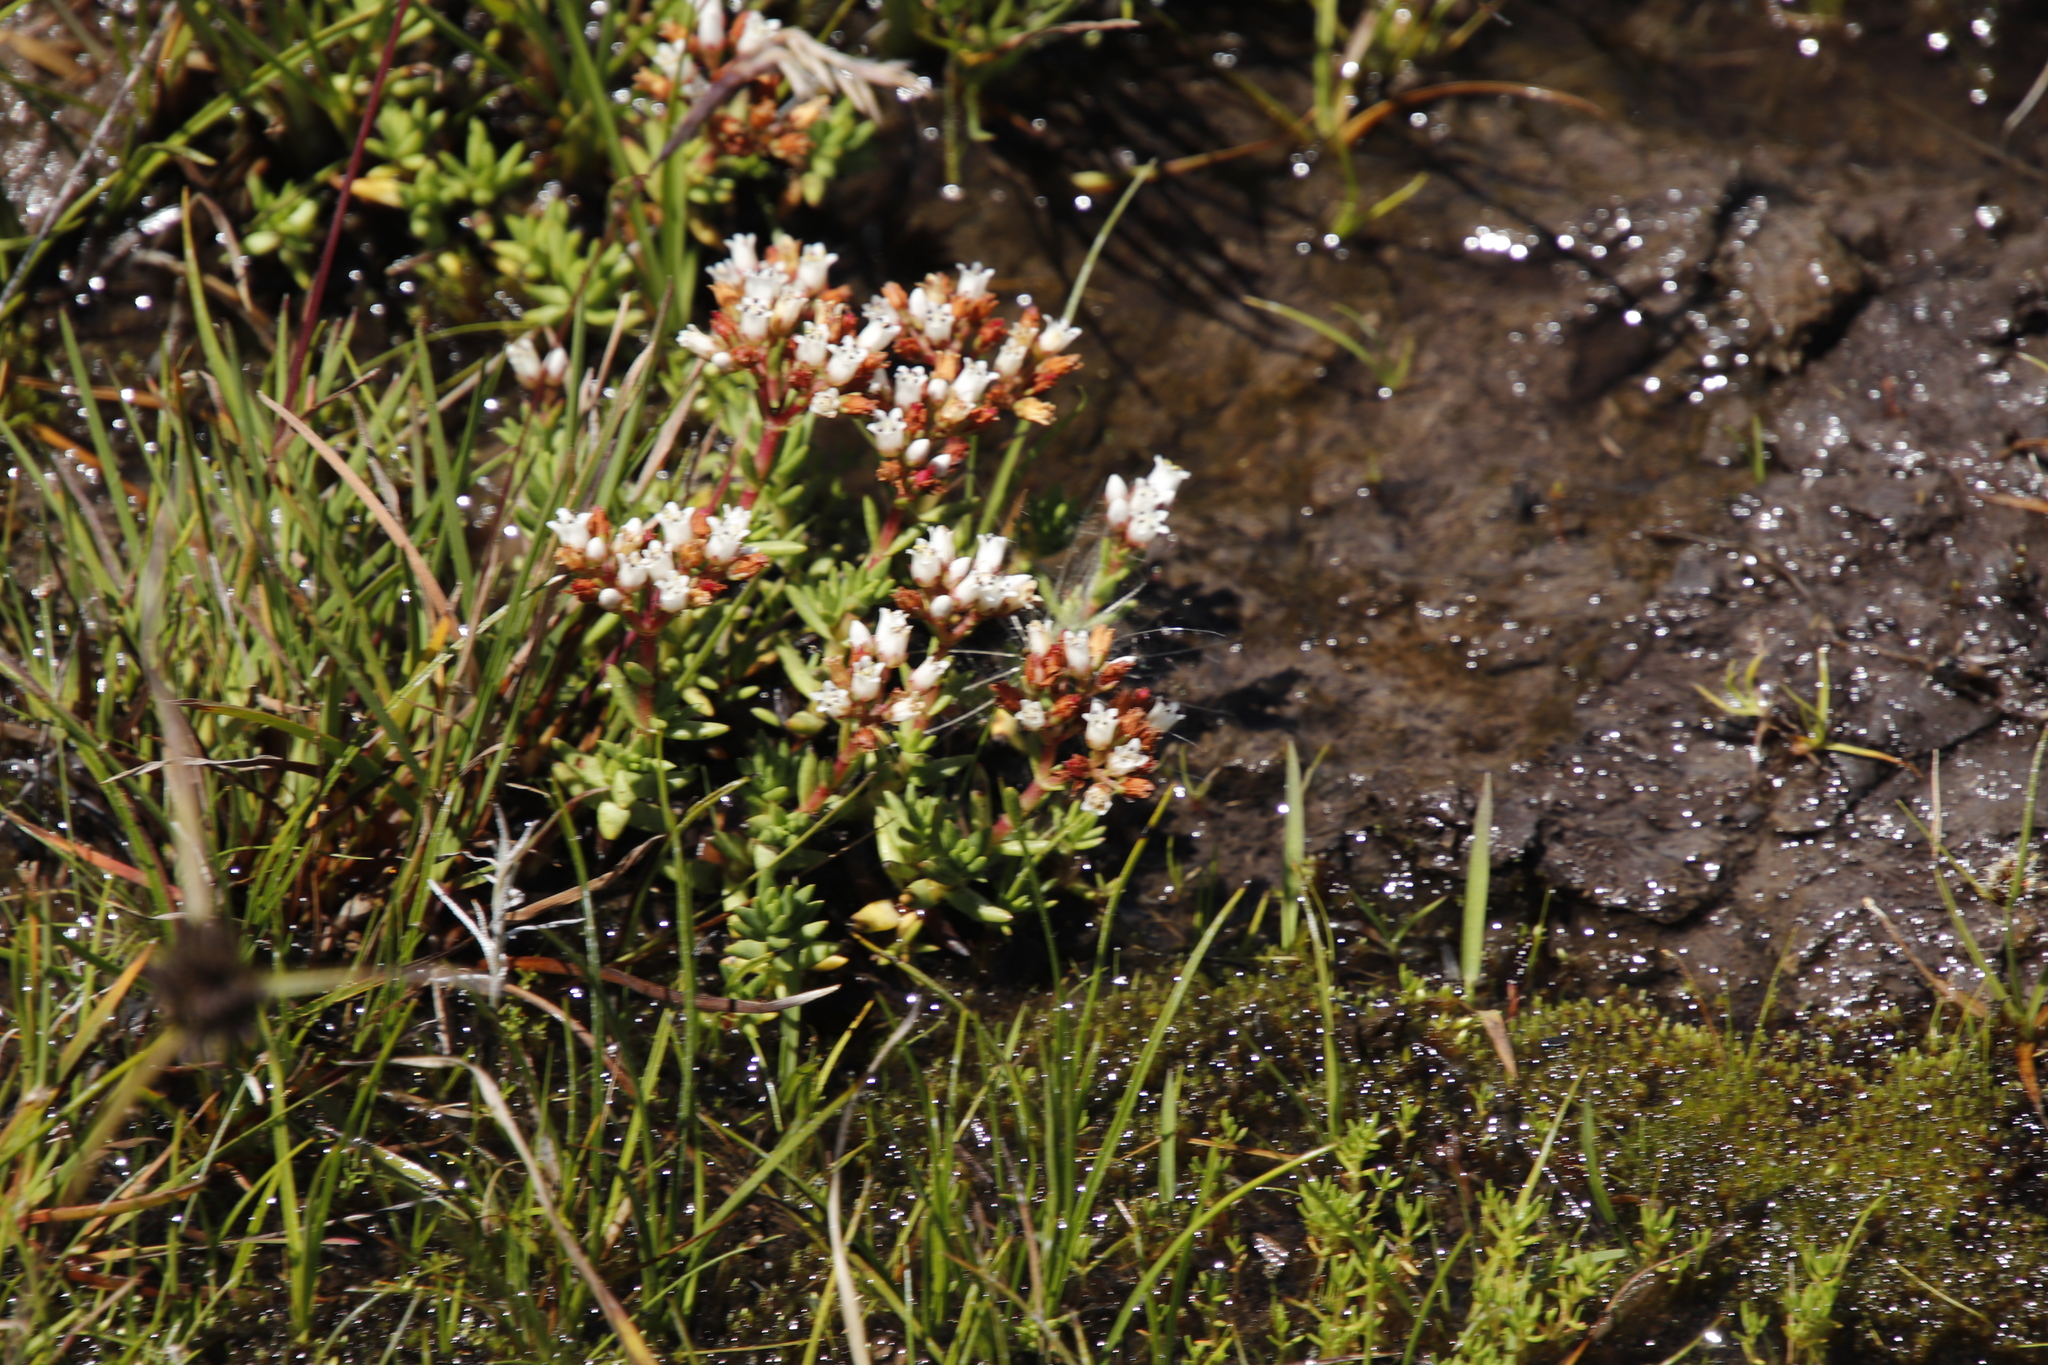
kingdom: Plantae
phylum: Tracheophyta
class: Magnoliopsida
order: Saxifragales
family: Crassulaceae
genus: Crassula
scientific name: Crassula dependens
